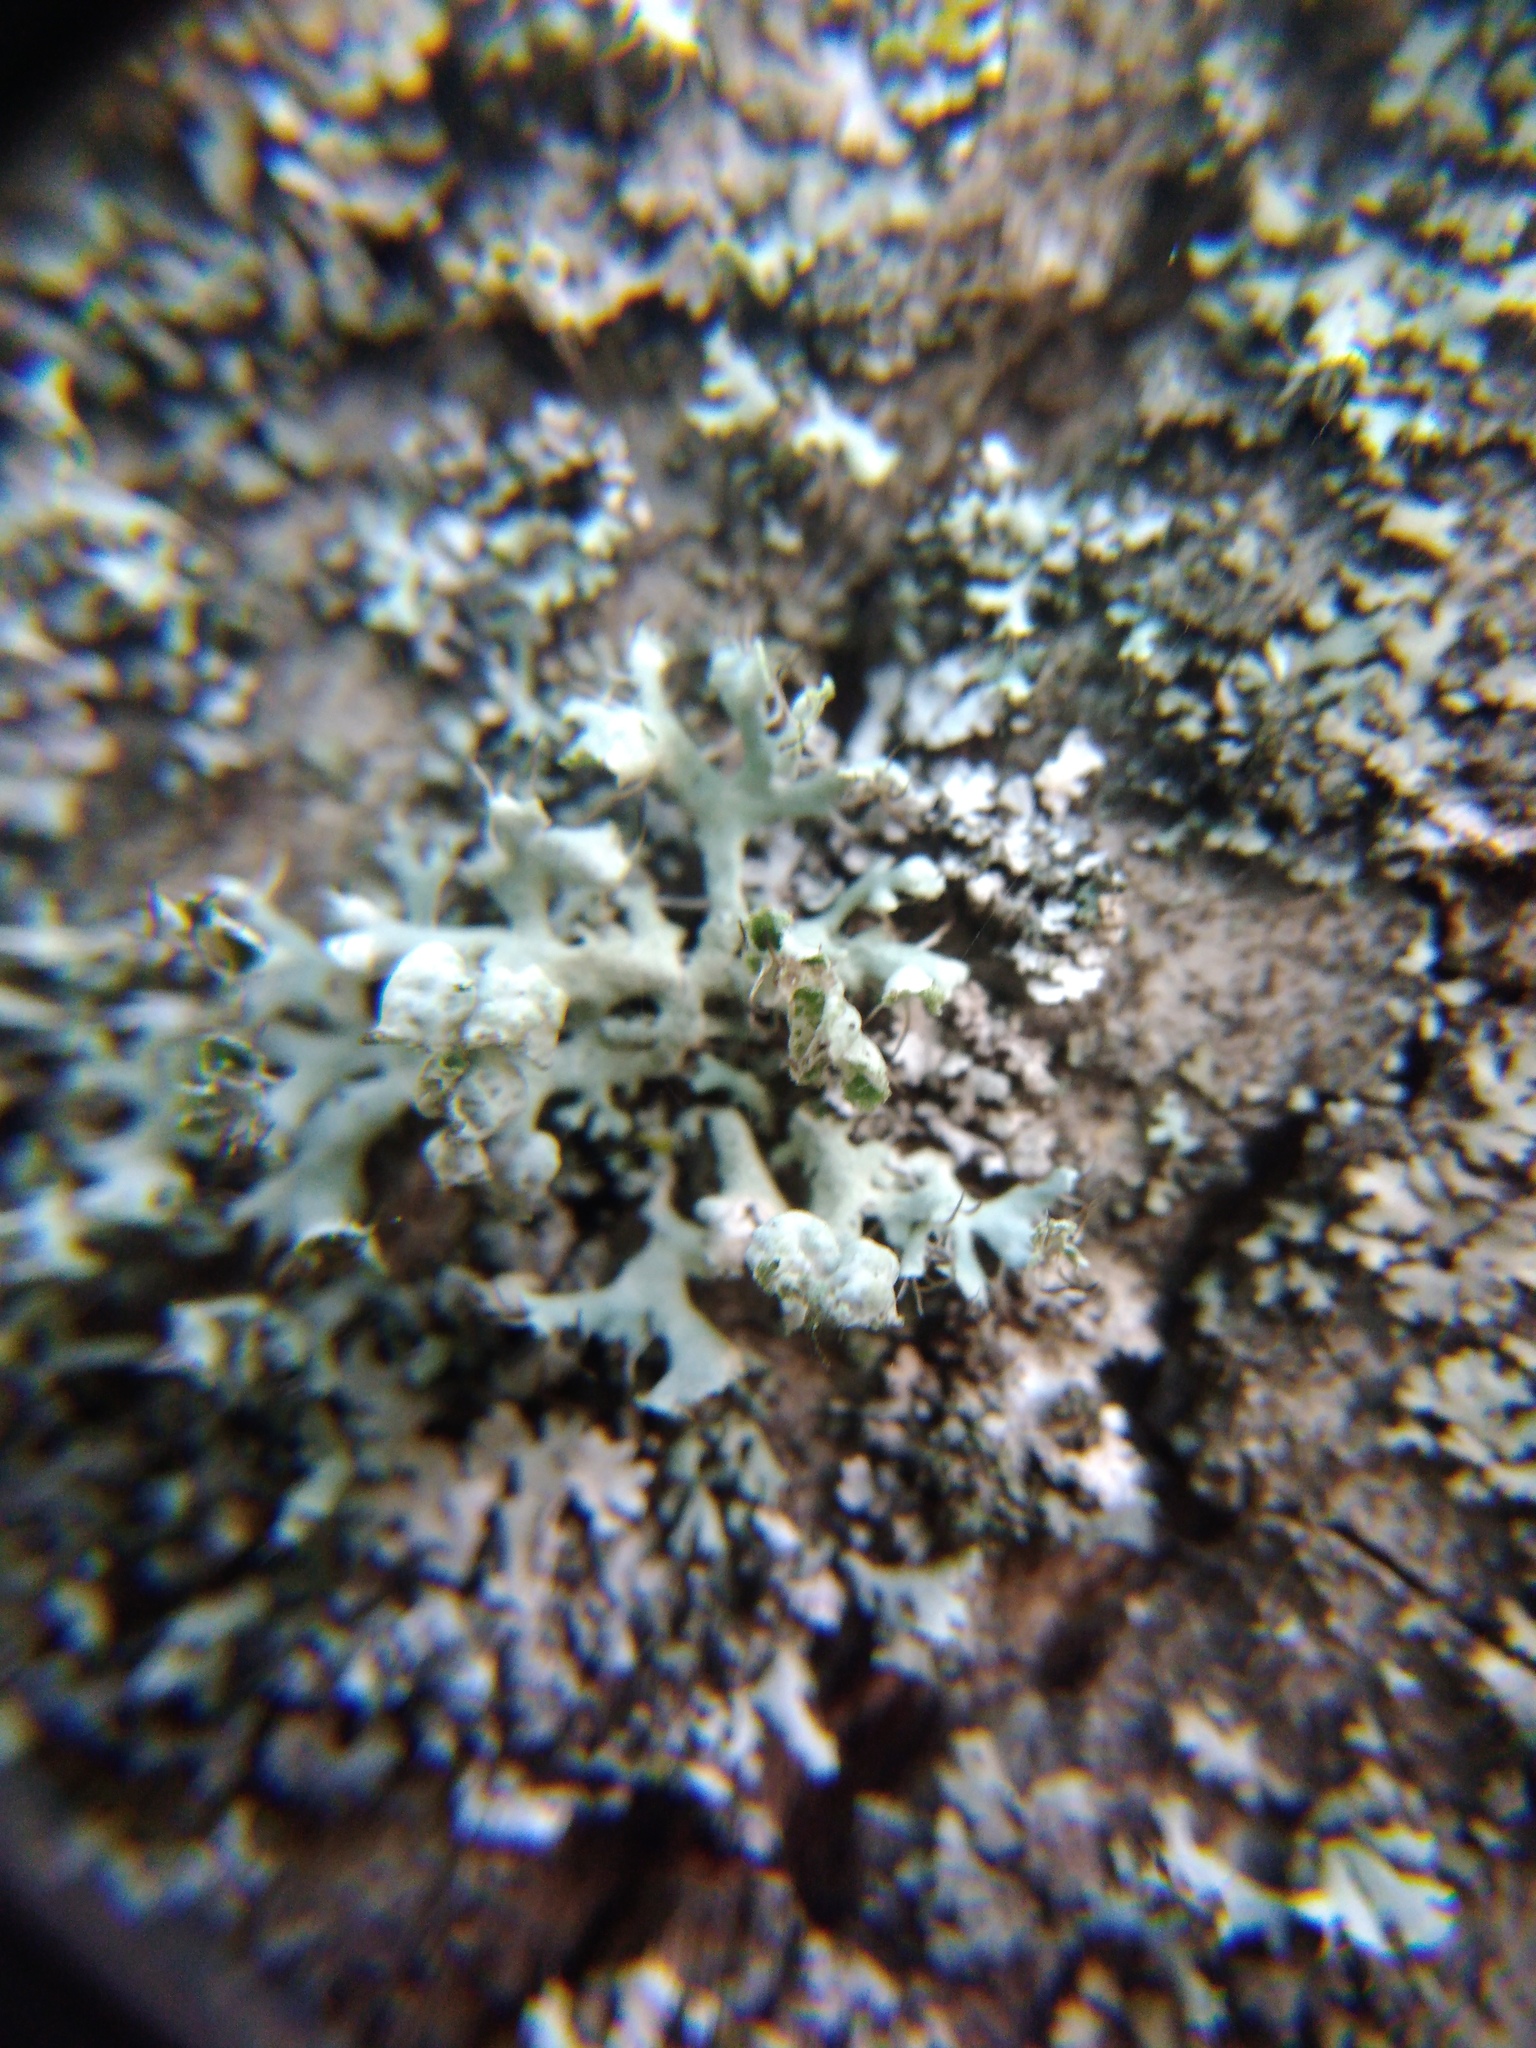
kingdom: Fungi
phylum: Ascomycota
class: Lecanoromycetes
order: Caliciales
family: Physciaceae
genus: Physcia
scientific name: Physcia adscendens
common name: Hooded rosette lichen
